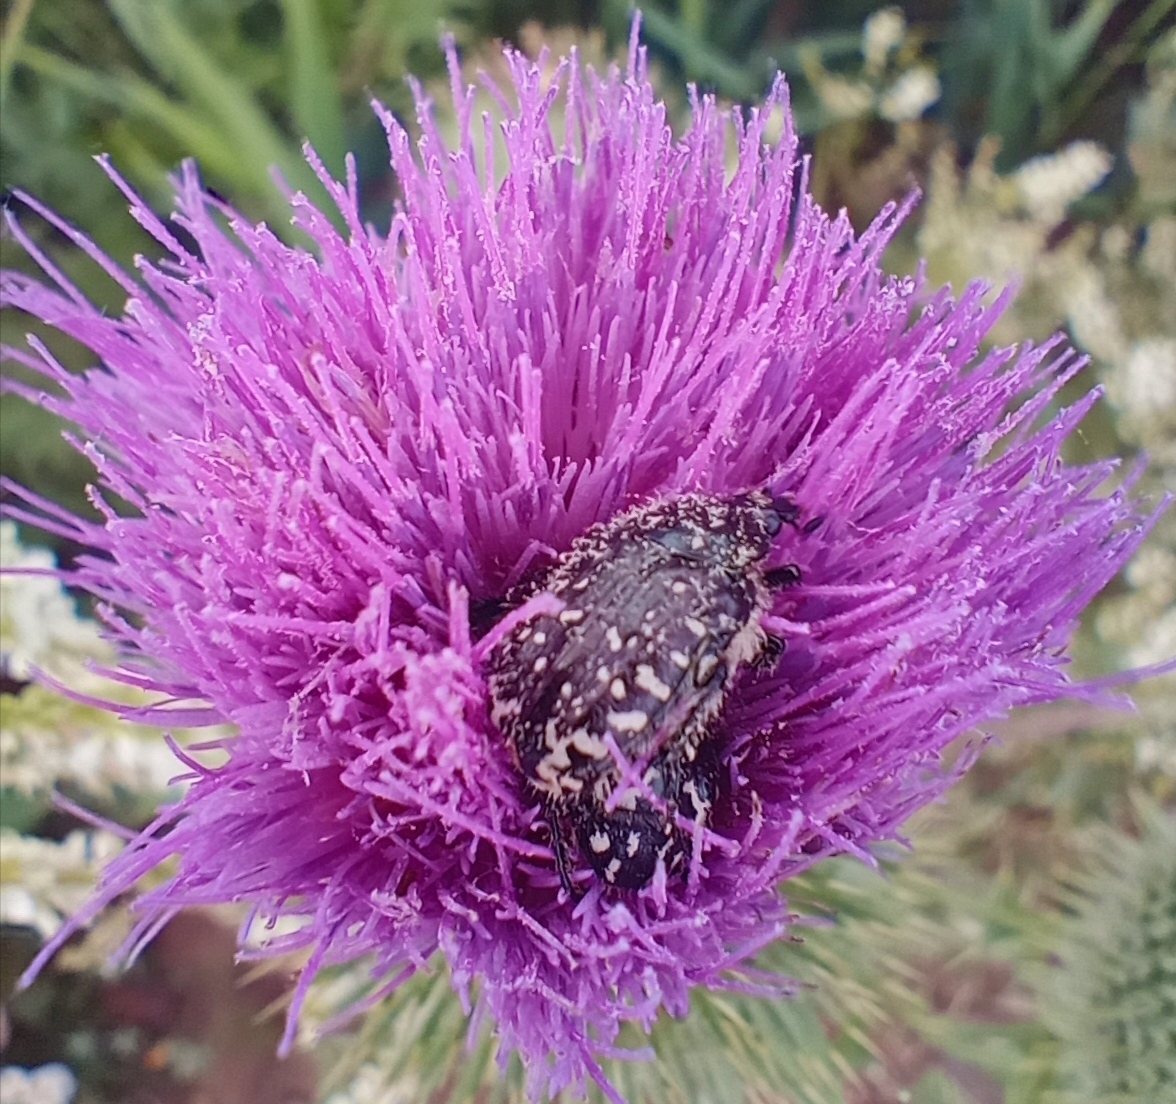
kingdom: Animalia
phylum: Arthropoda
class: Insecta
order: Coleoptera
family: Scarabaeidae
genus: Oxythyrea
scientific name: Oxythyrea funesta
